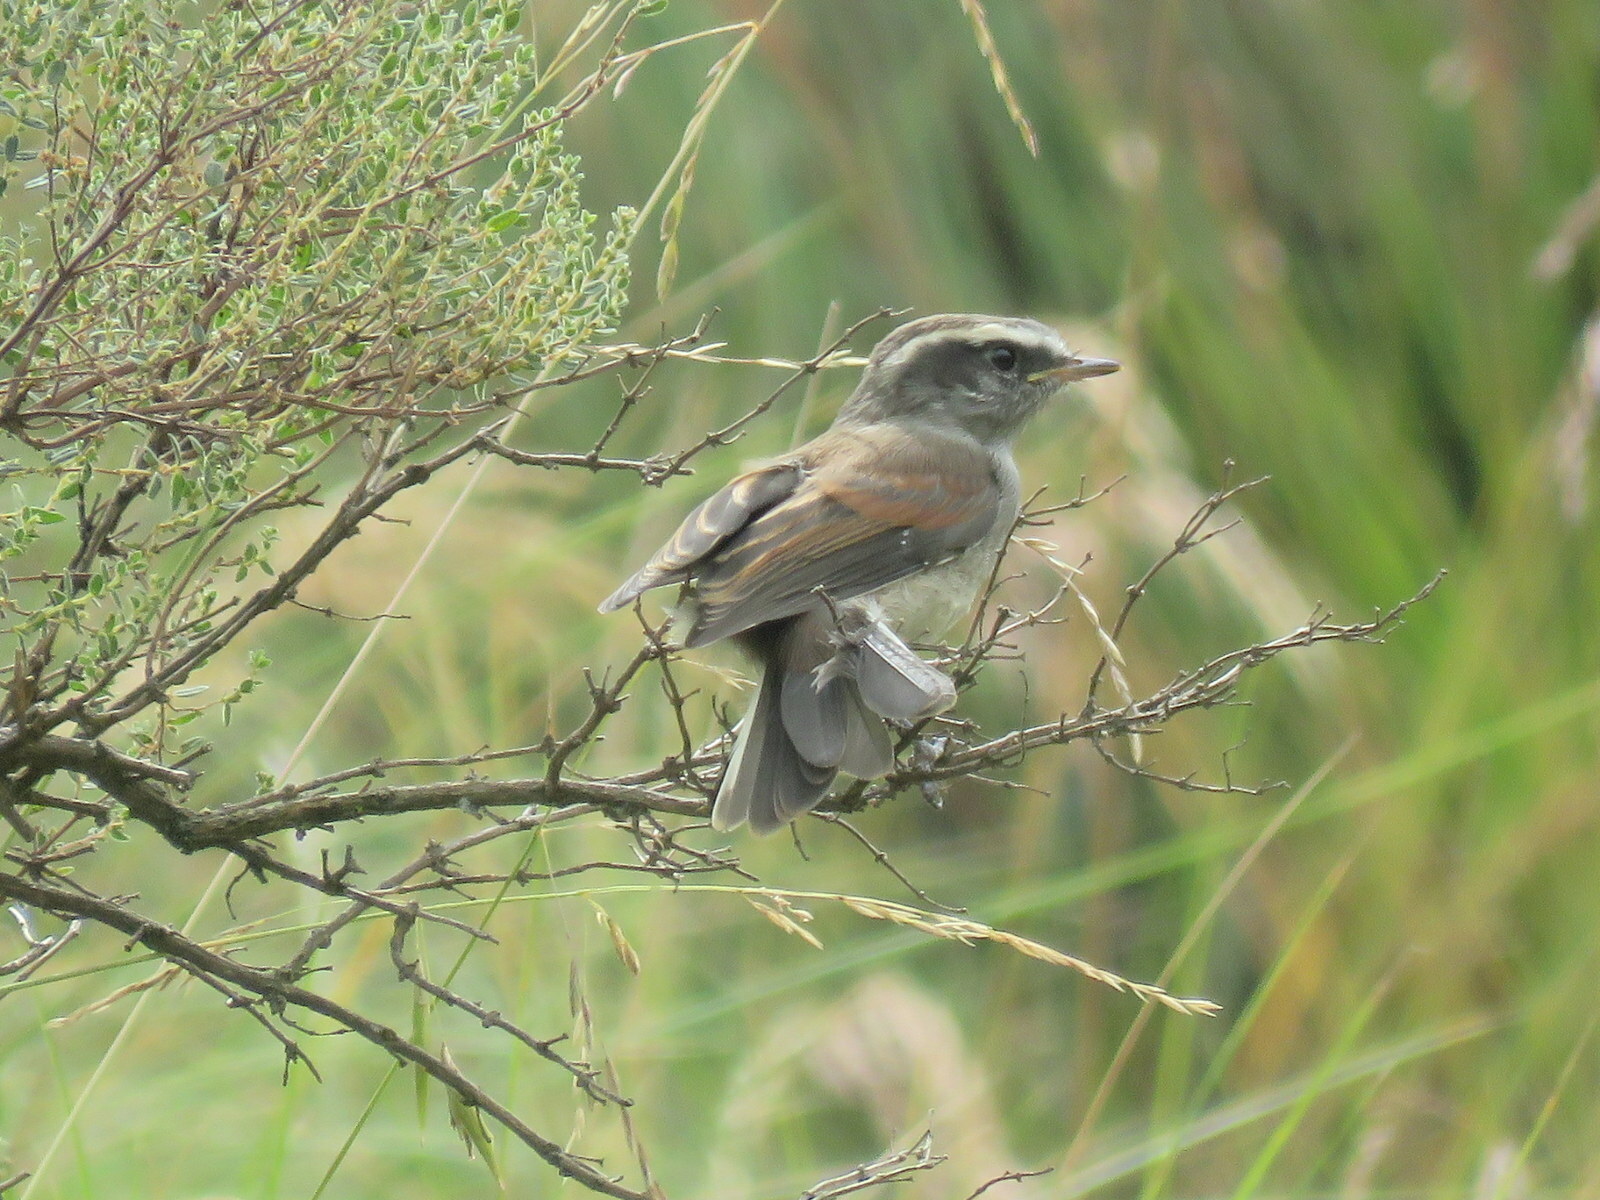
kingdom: Animalia
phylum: Chordata
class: Aves
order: Passeriformes
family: Tyrannidae
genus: Ochthoeca
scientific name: Ochthoeca leucophrys
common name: White-browed chat-tyrant
